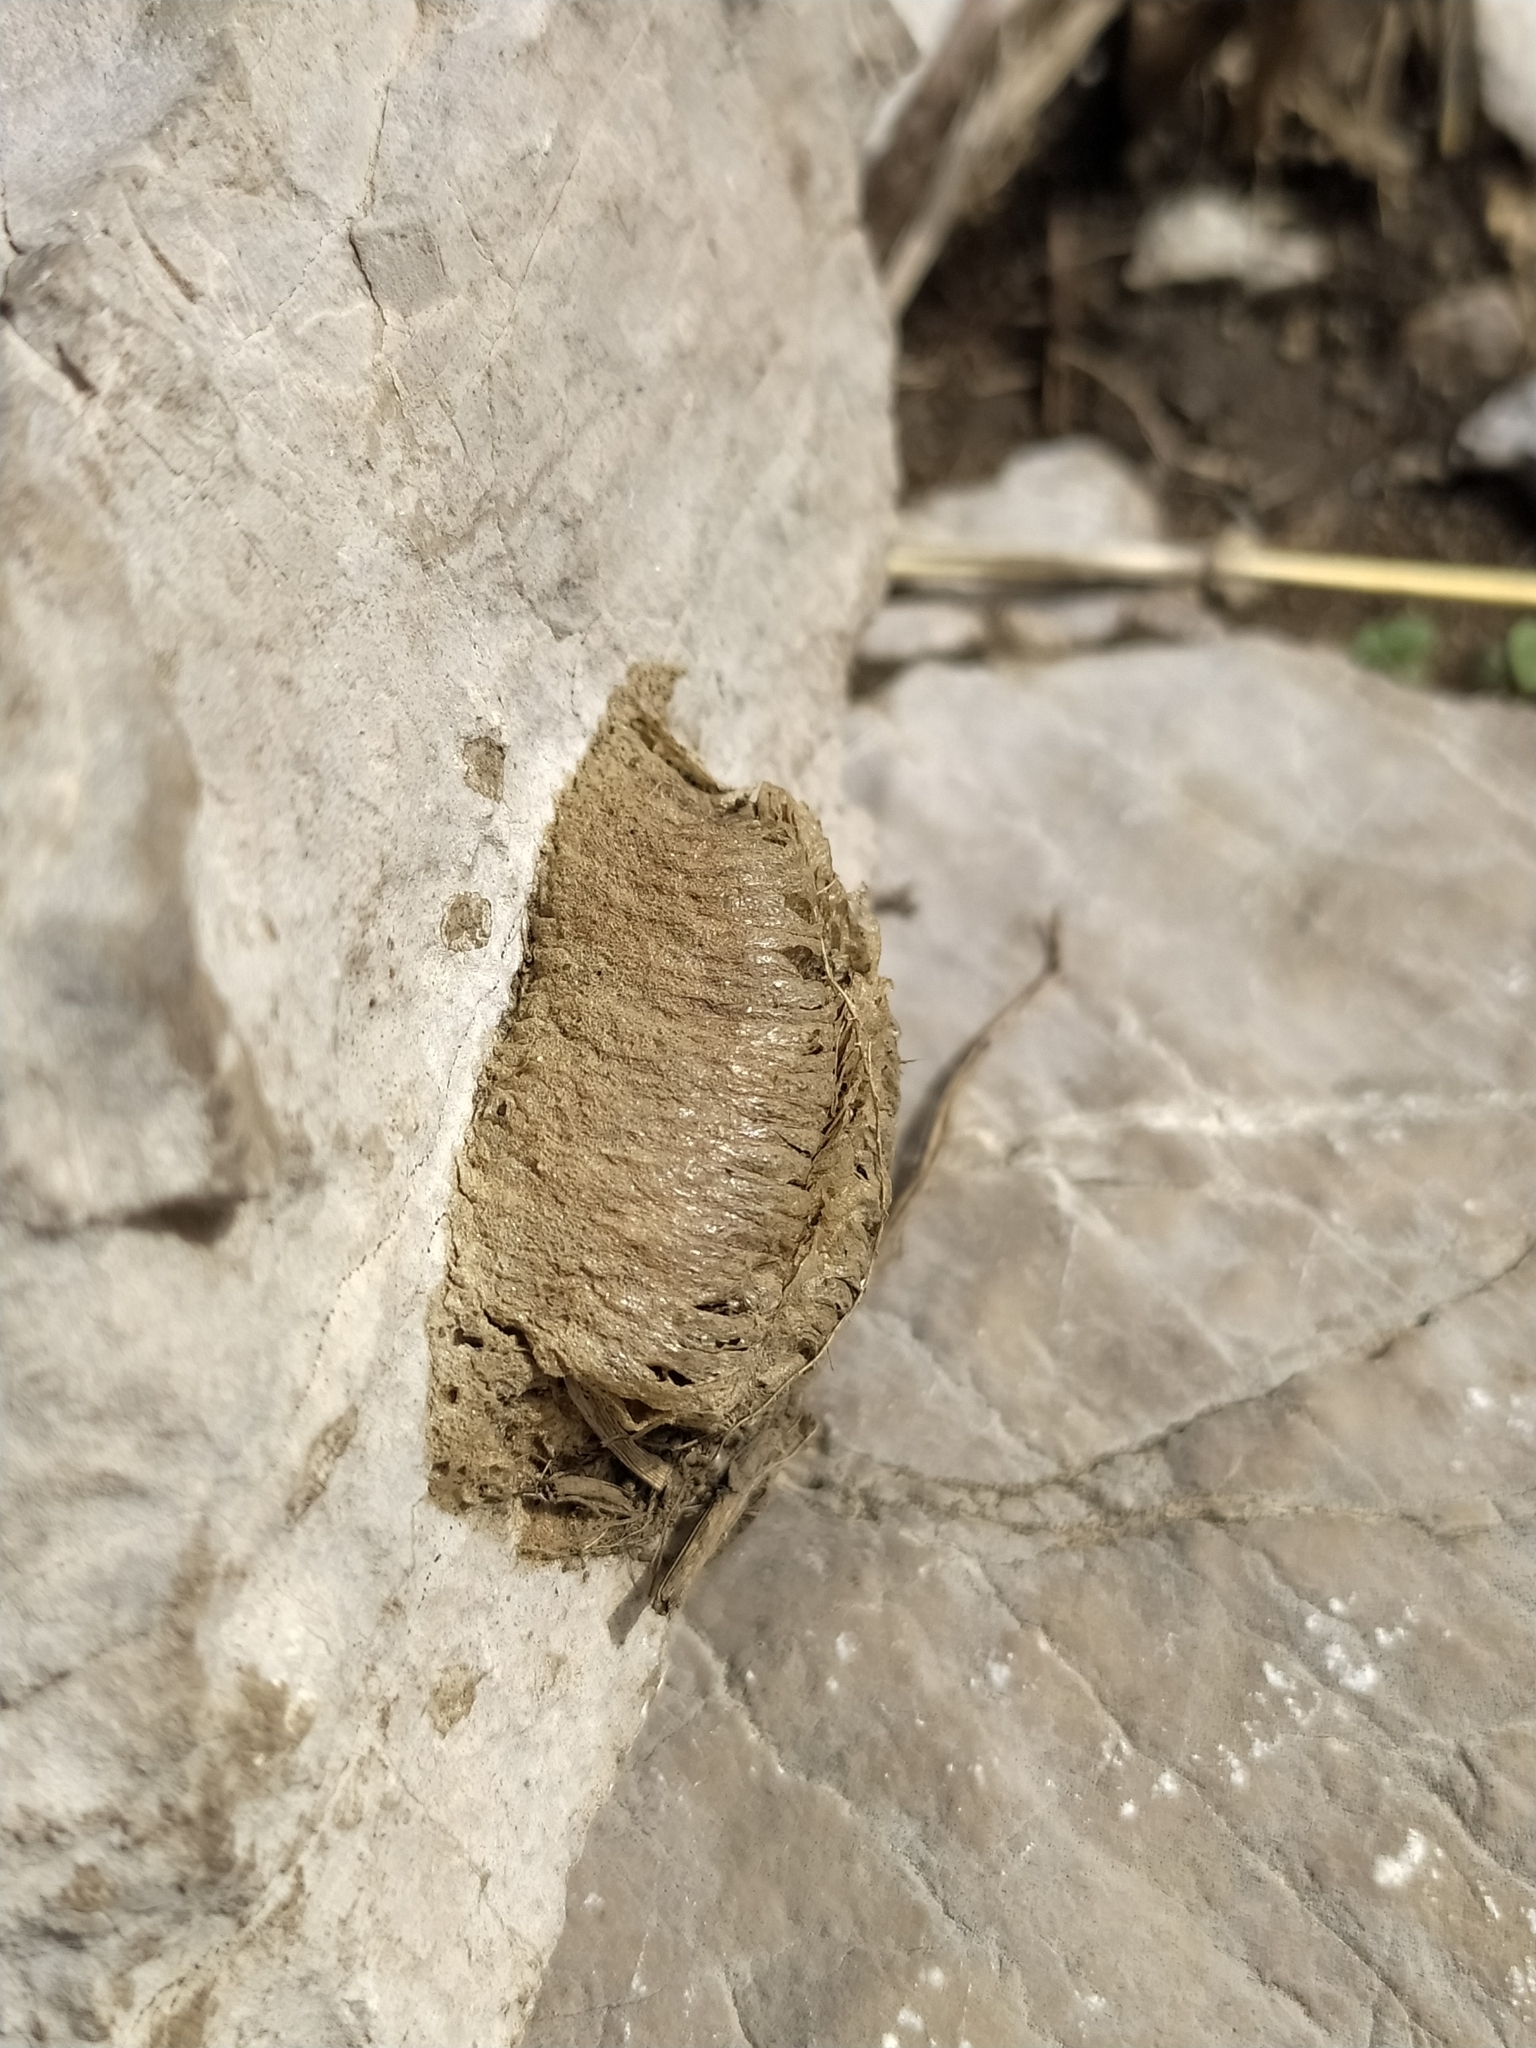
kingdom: Animalia
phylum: Arthropoda
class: Insecta
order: Mantodea
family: Mantidae
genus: Mantis
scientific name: Mantis religiosa
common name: Praying mantis
